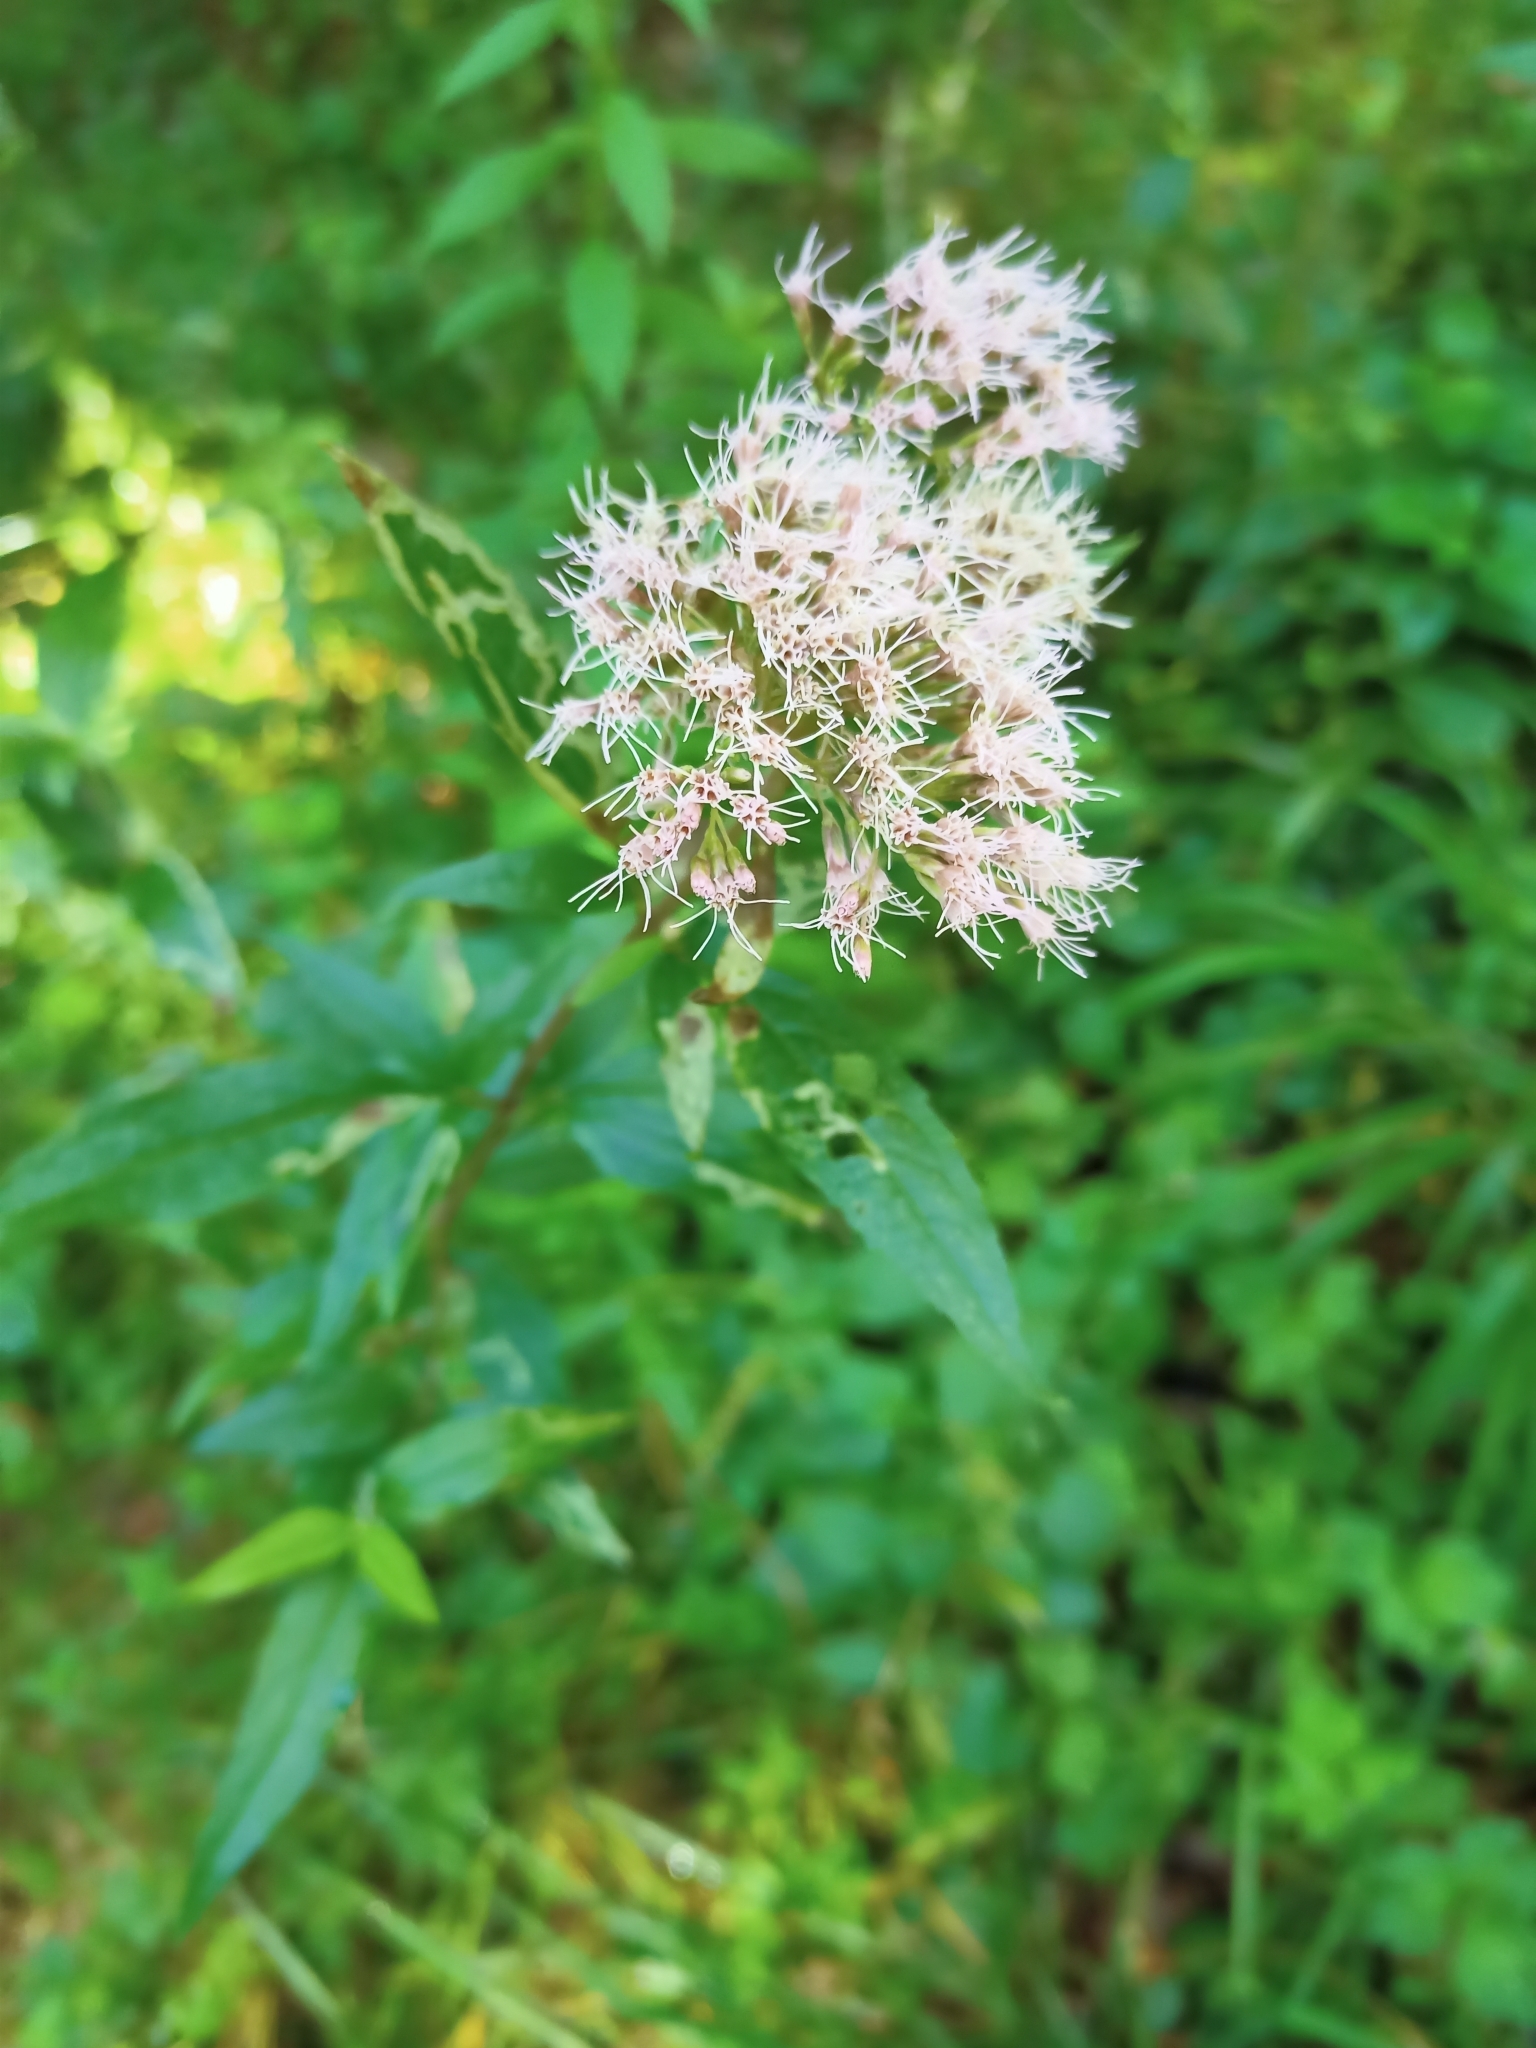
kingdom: Plantae
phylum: Tracheophyta
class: Magnoliopsida
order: Asterales
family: Asteraceae
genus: Eupatorium
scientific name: Eupatorium cannabinum
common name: Hemp-agrimony
